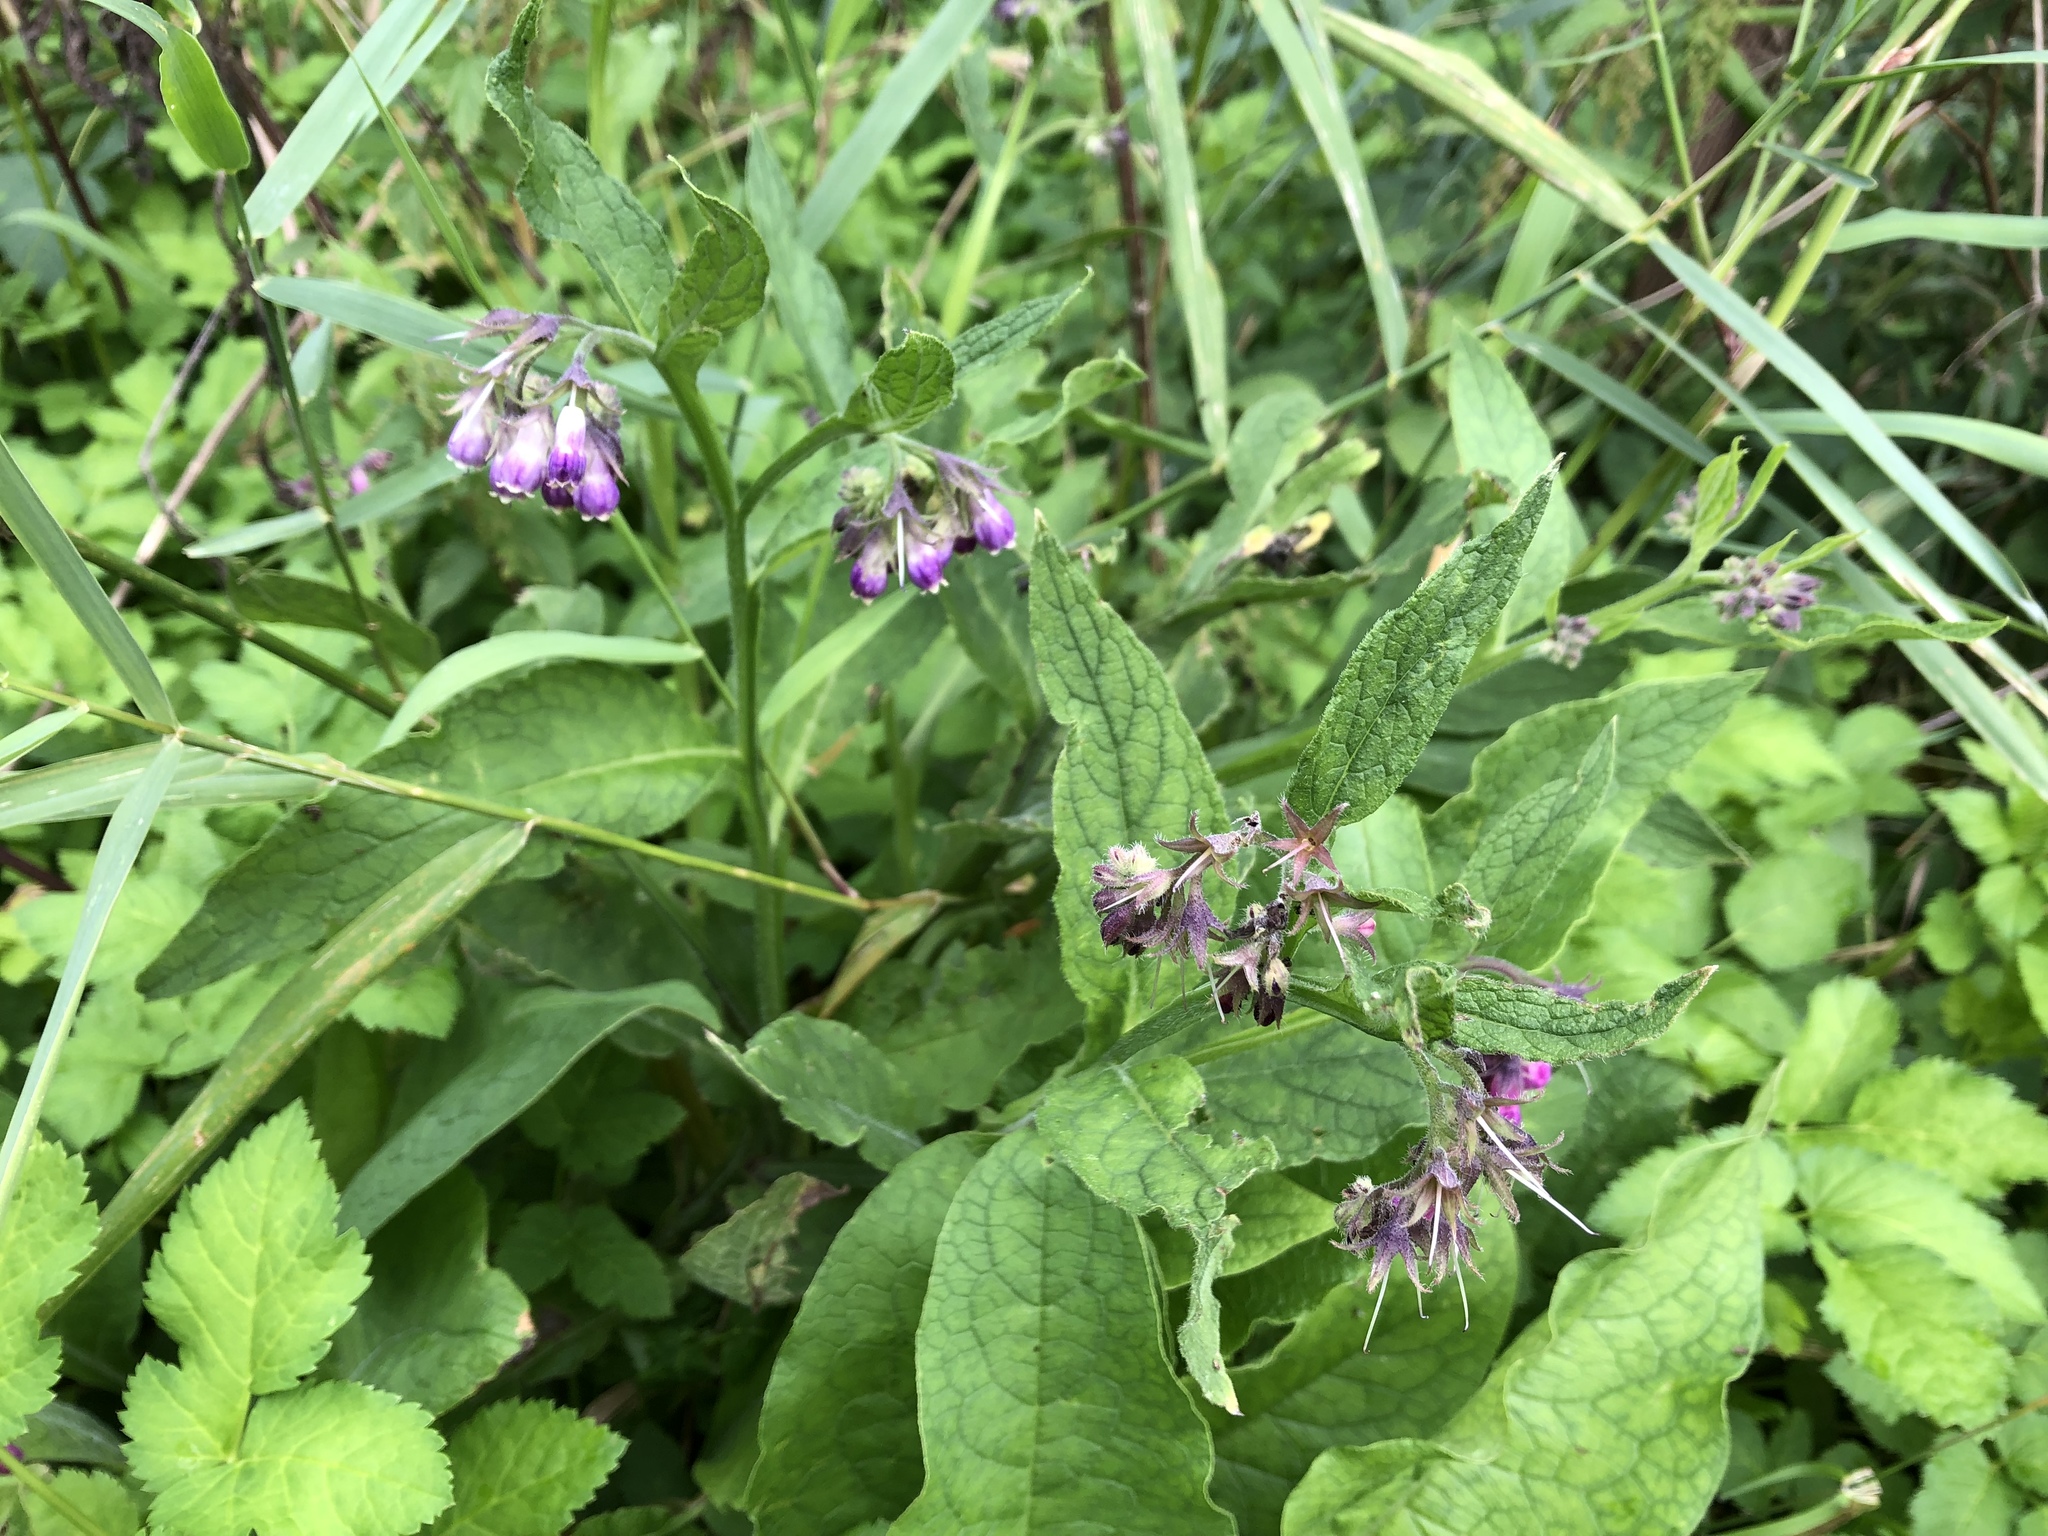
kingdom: Plantae
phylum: Tracheophyta
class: Magnoliopsida
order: Boraginales
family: Boraginaceae
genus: Symphytum
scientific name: Symphytum officinale
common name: Common comfrey
